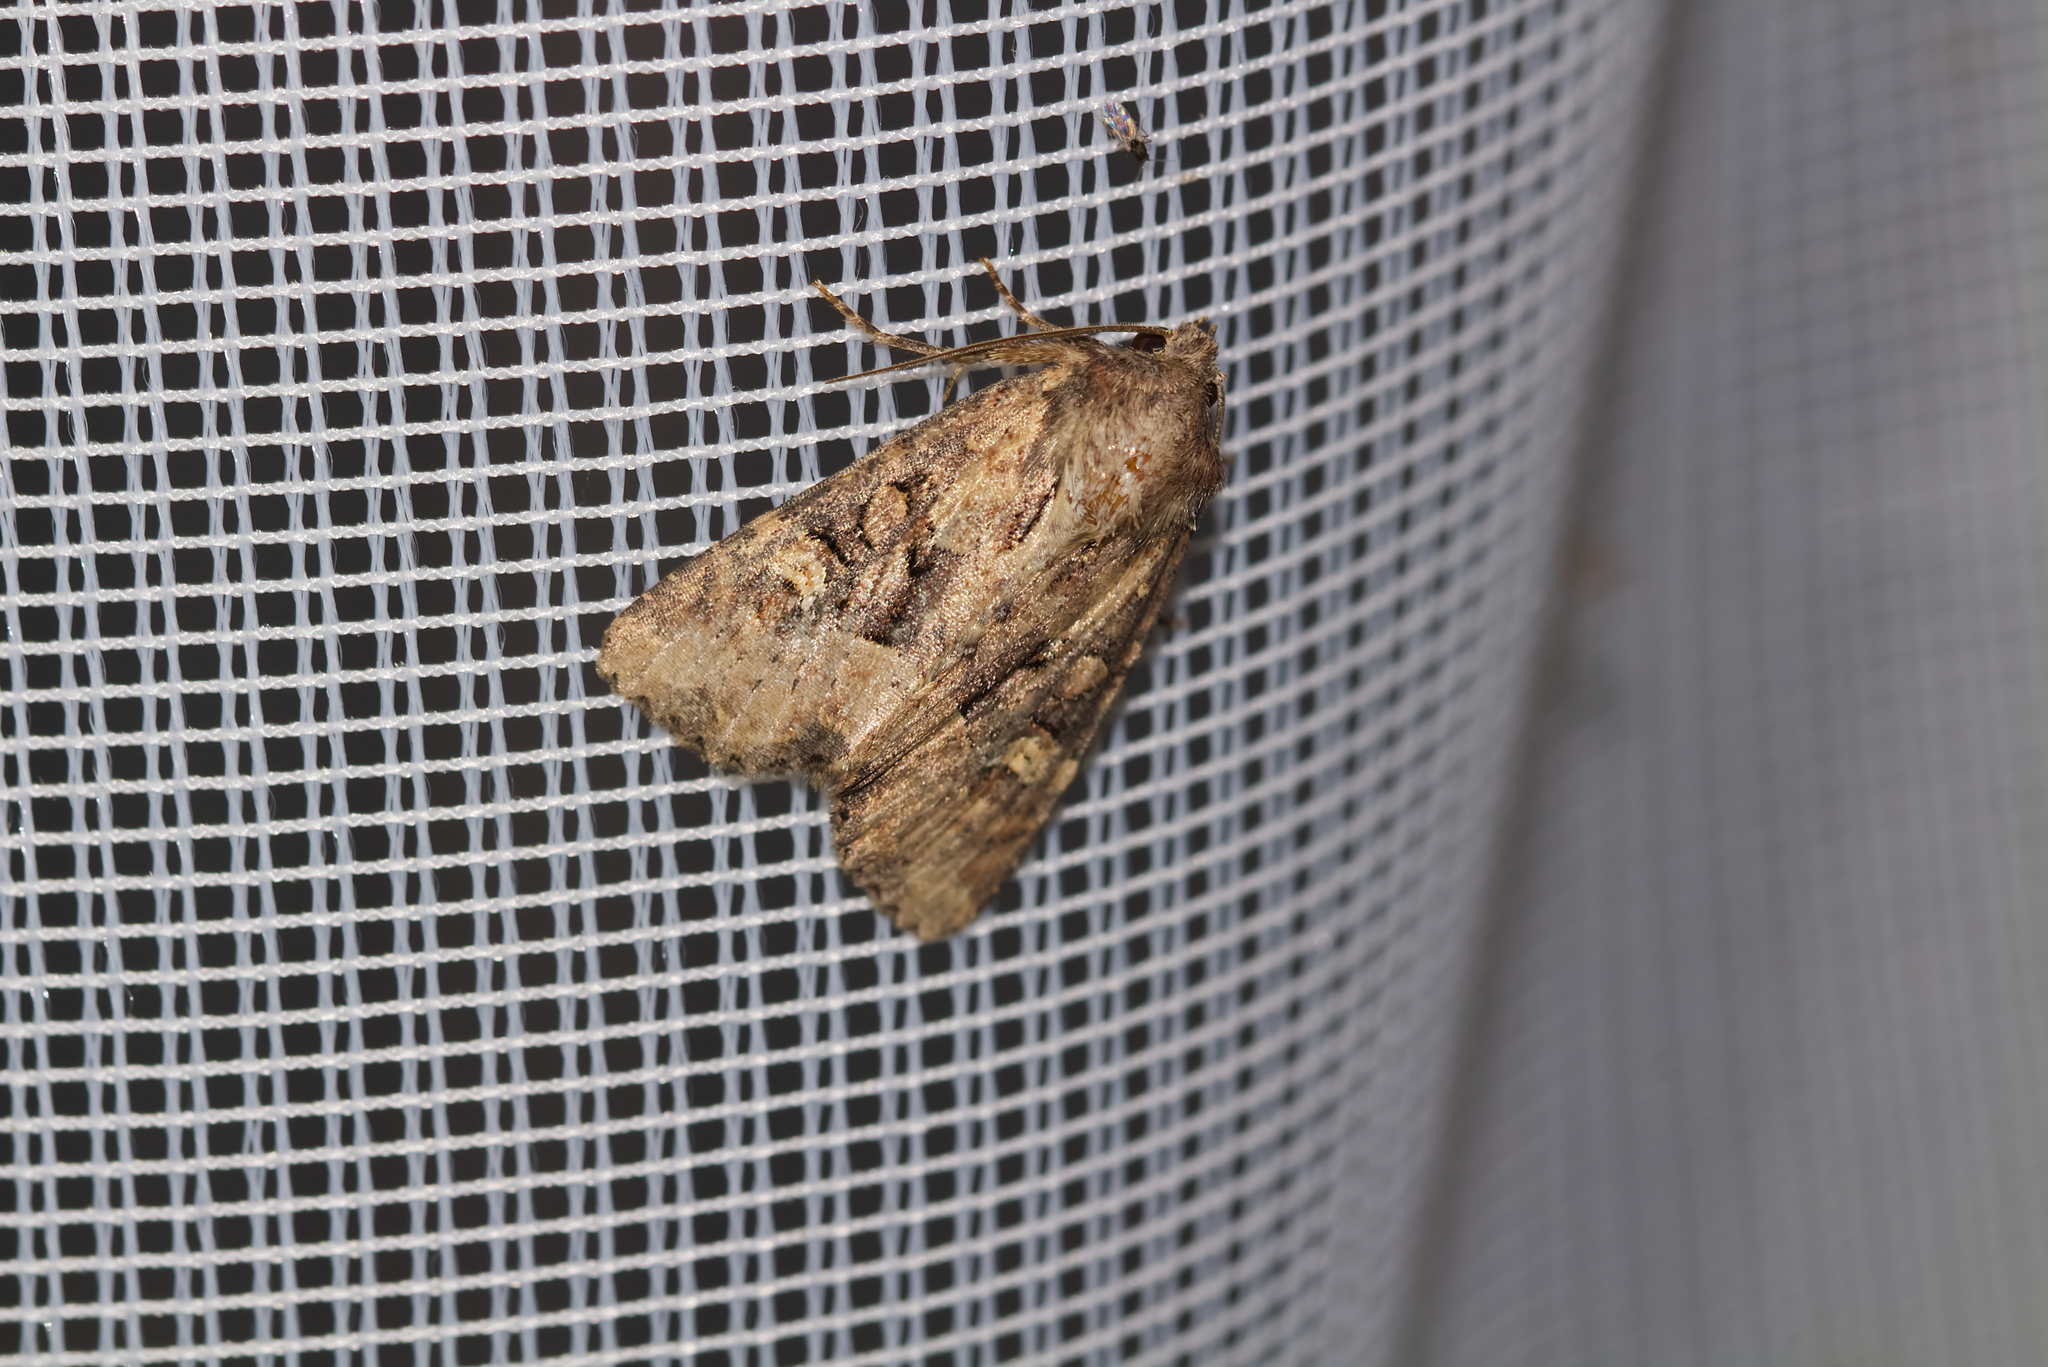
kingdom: Animalia
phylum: Arthropoda
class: Insecta
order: Lepidoptera
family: Noctuidae
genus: Luperina
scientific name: Luperina testacea
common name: Flounced rustic
